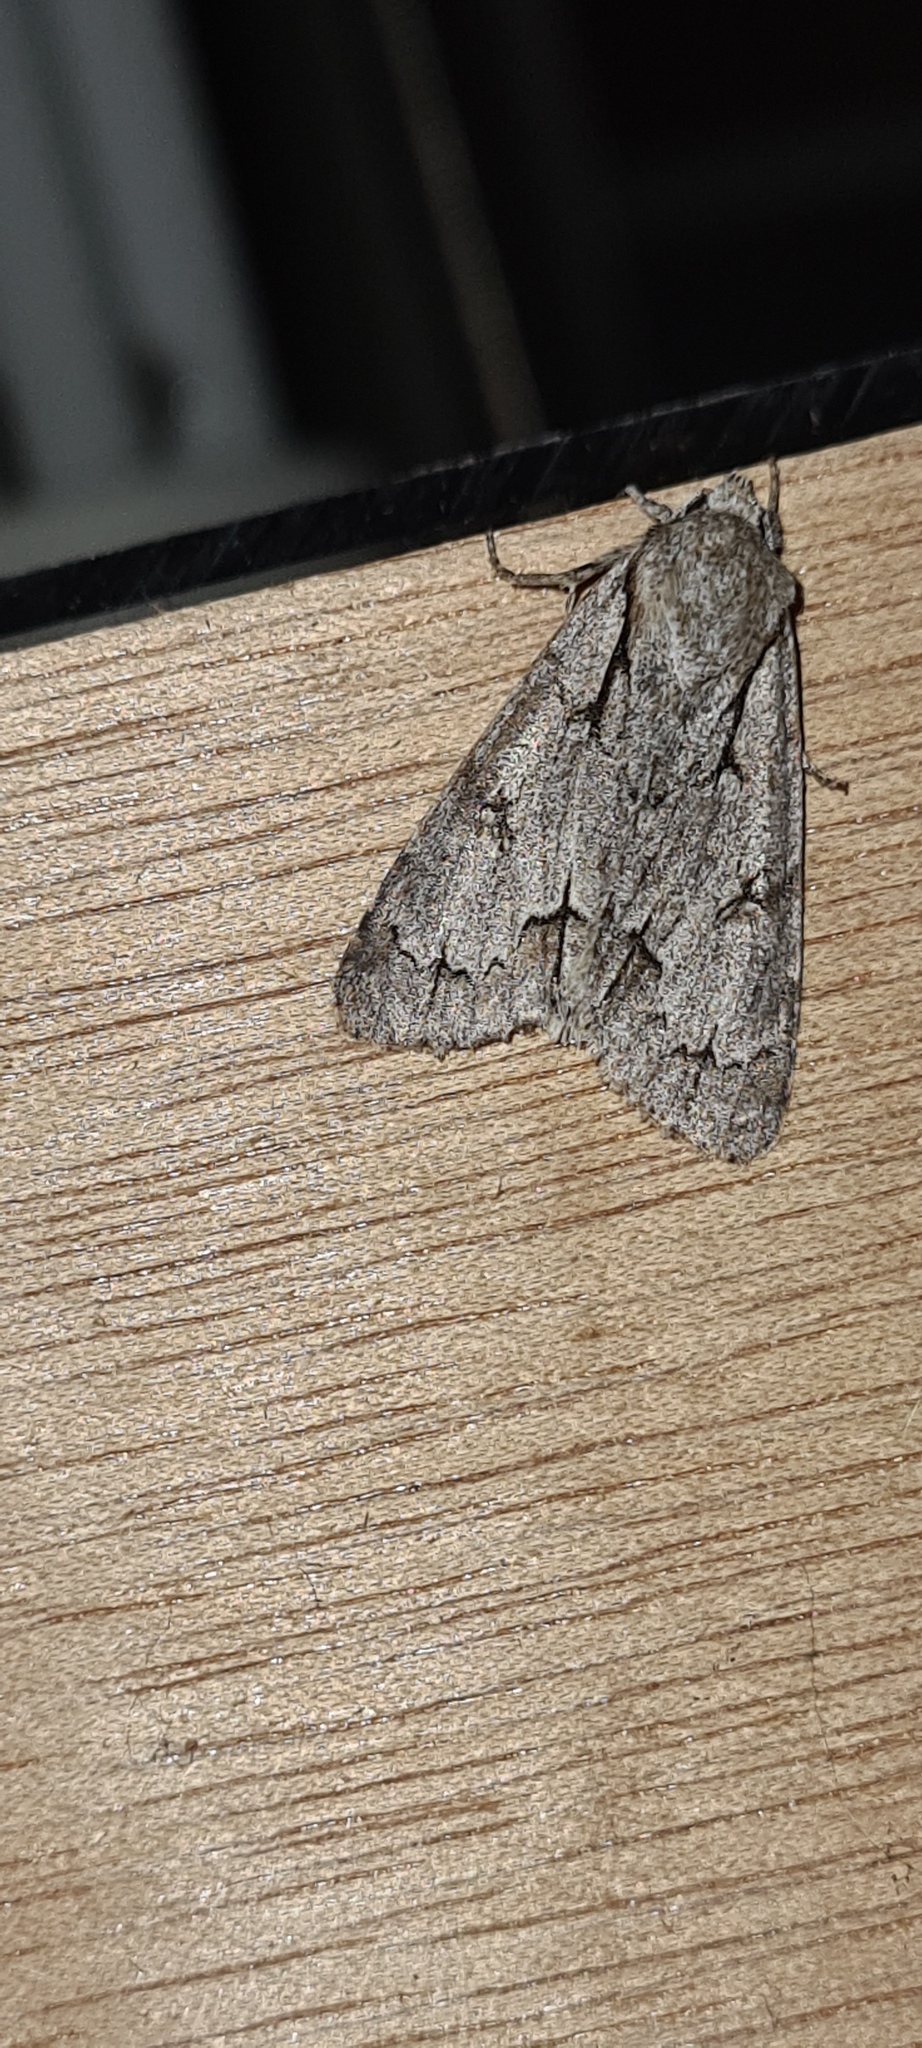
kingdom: Animalia
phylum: Arthropoda
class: Insecta
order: Lepidoptera
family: Noctuidae
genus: Acronicta
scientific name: Acronicta
